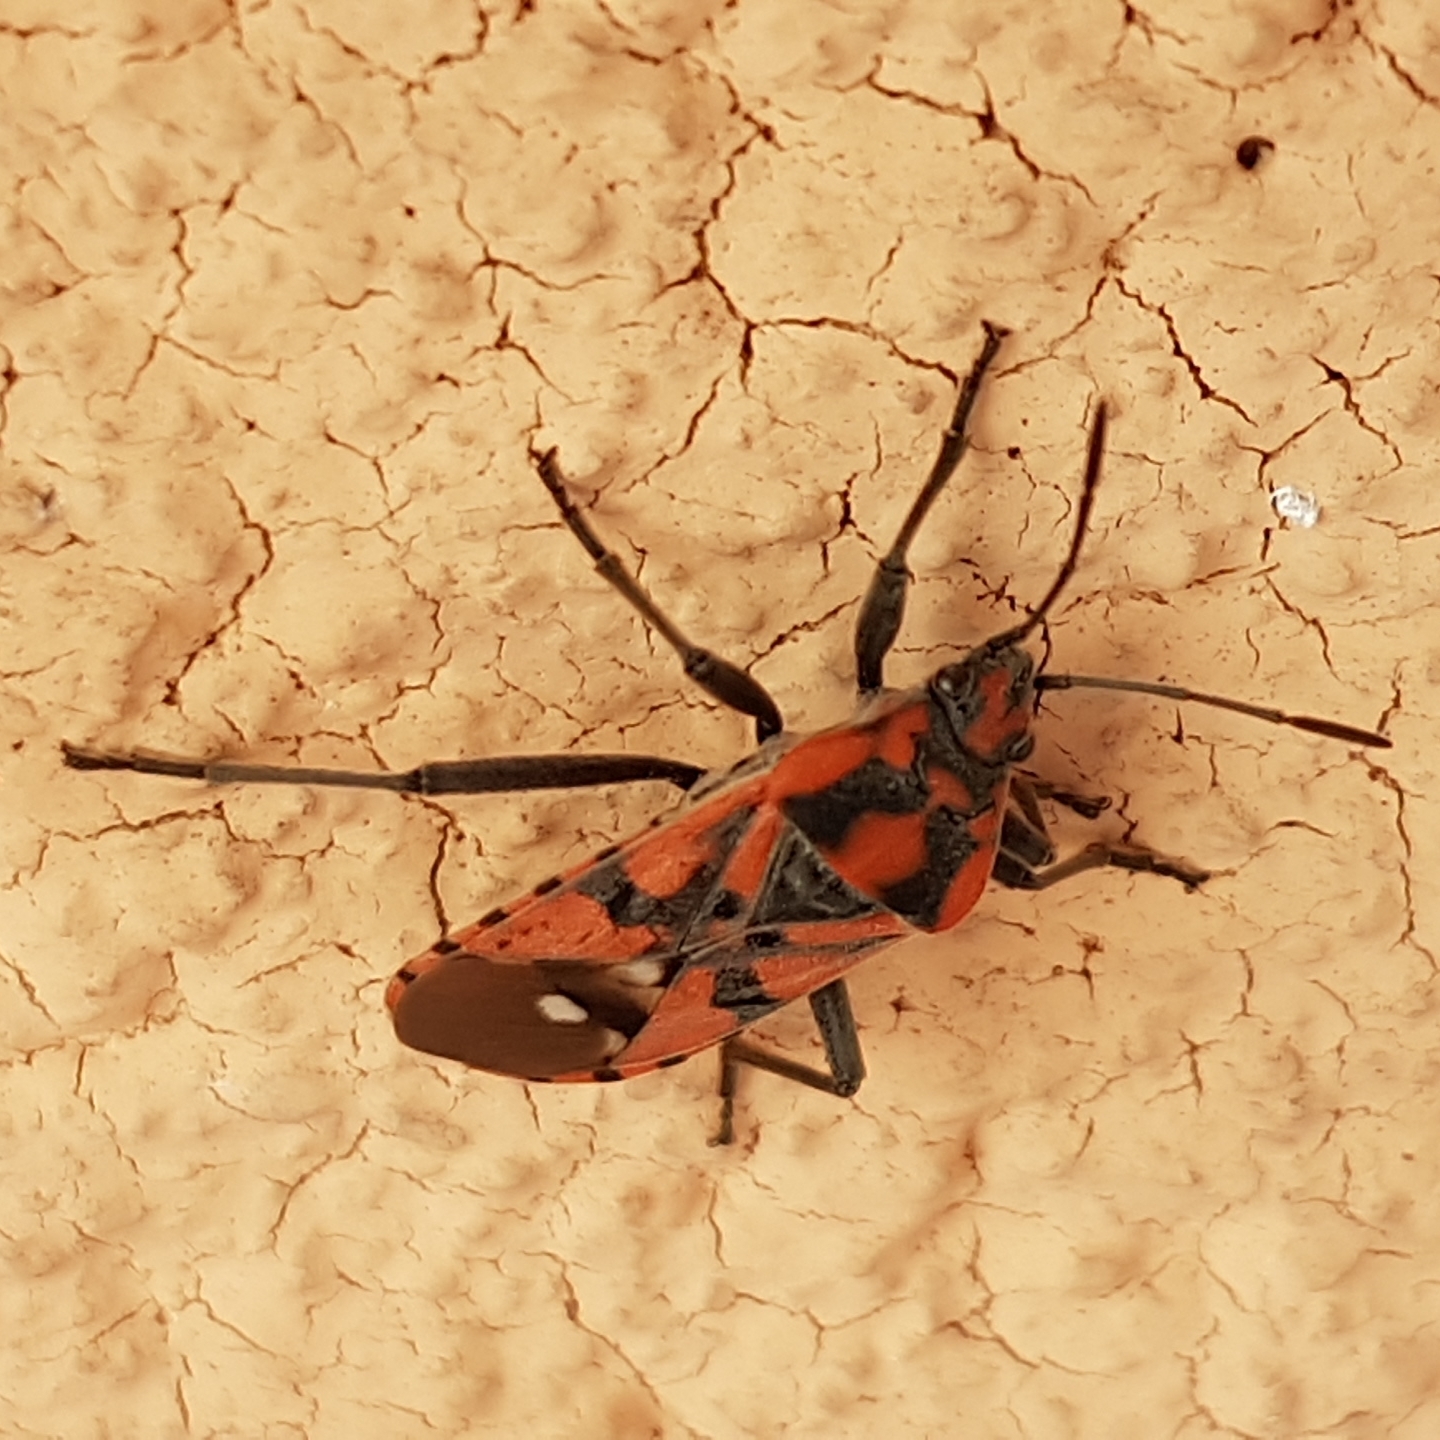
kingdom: Animalia
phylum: Arthropoda
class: Insecta
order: Hemiptera
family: Lygaeidae
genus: Spilostethus
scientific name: Spilostethus pandurus
